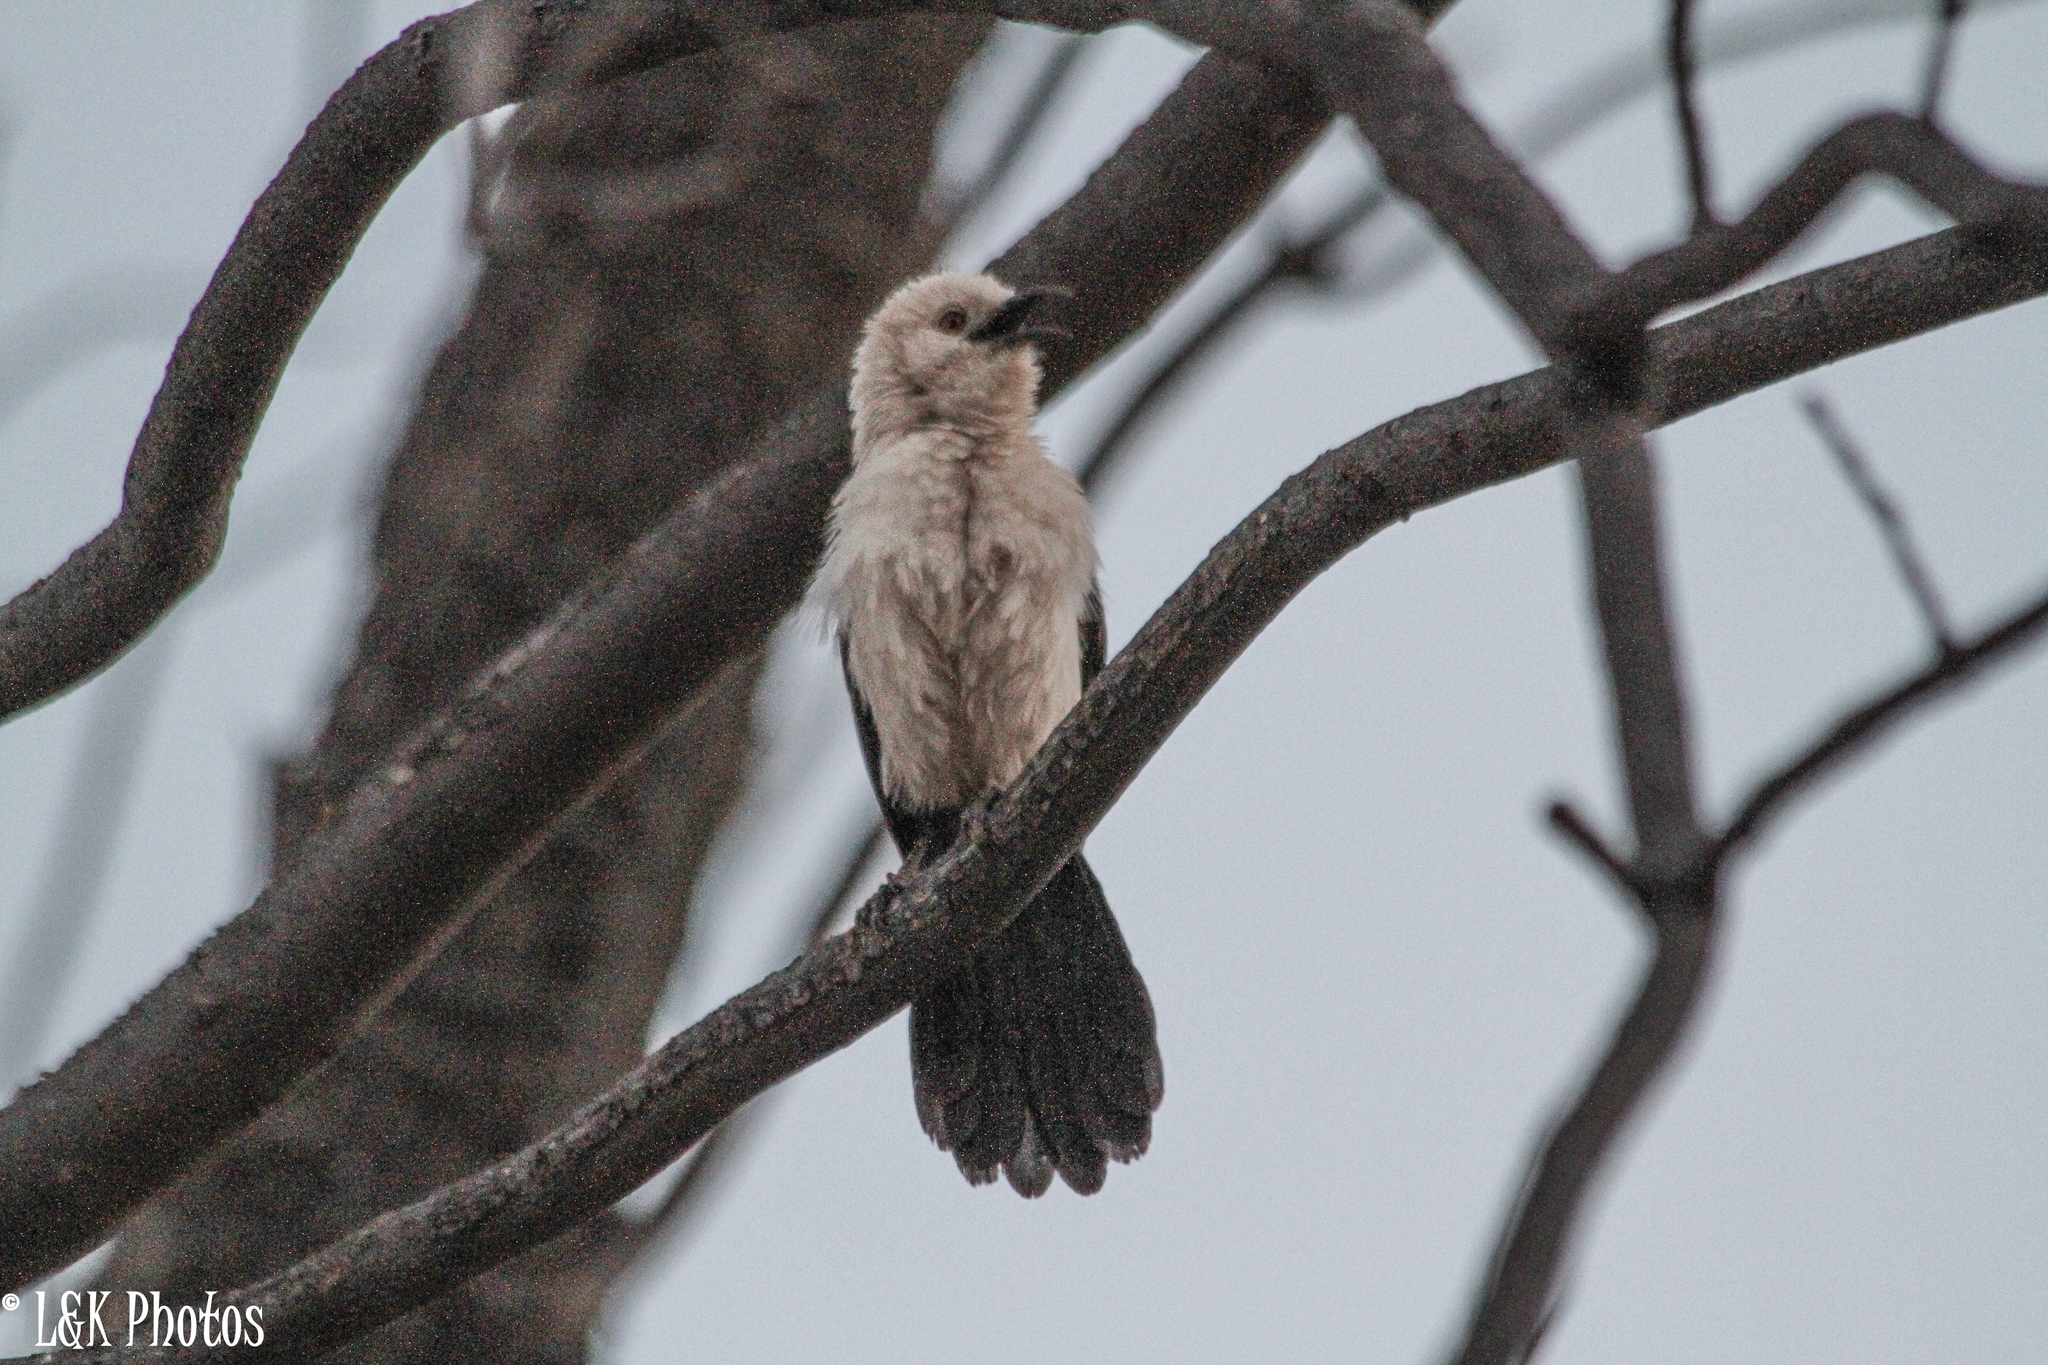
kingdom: Animalia
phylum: Chordata
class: Aves
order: Passeriformes
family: Leiothrichidae
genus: Turdoides
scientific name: Turdoides bicolor
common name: Southern pied babbler
